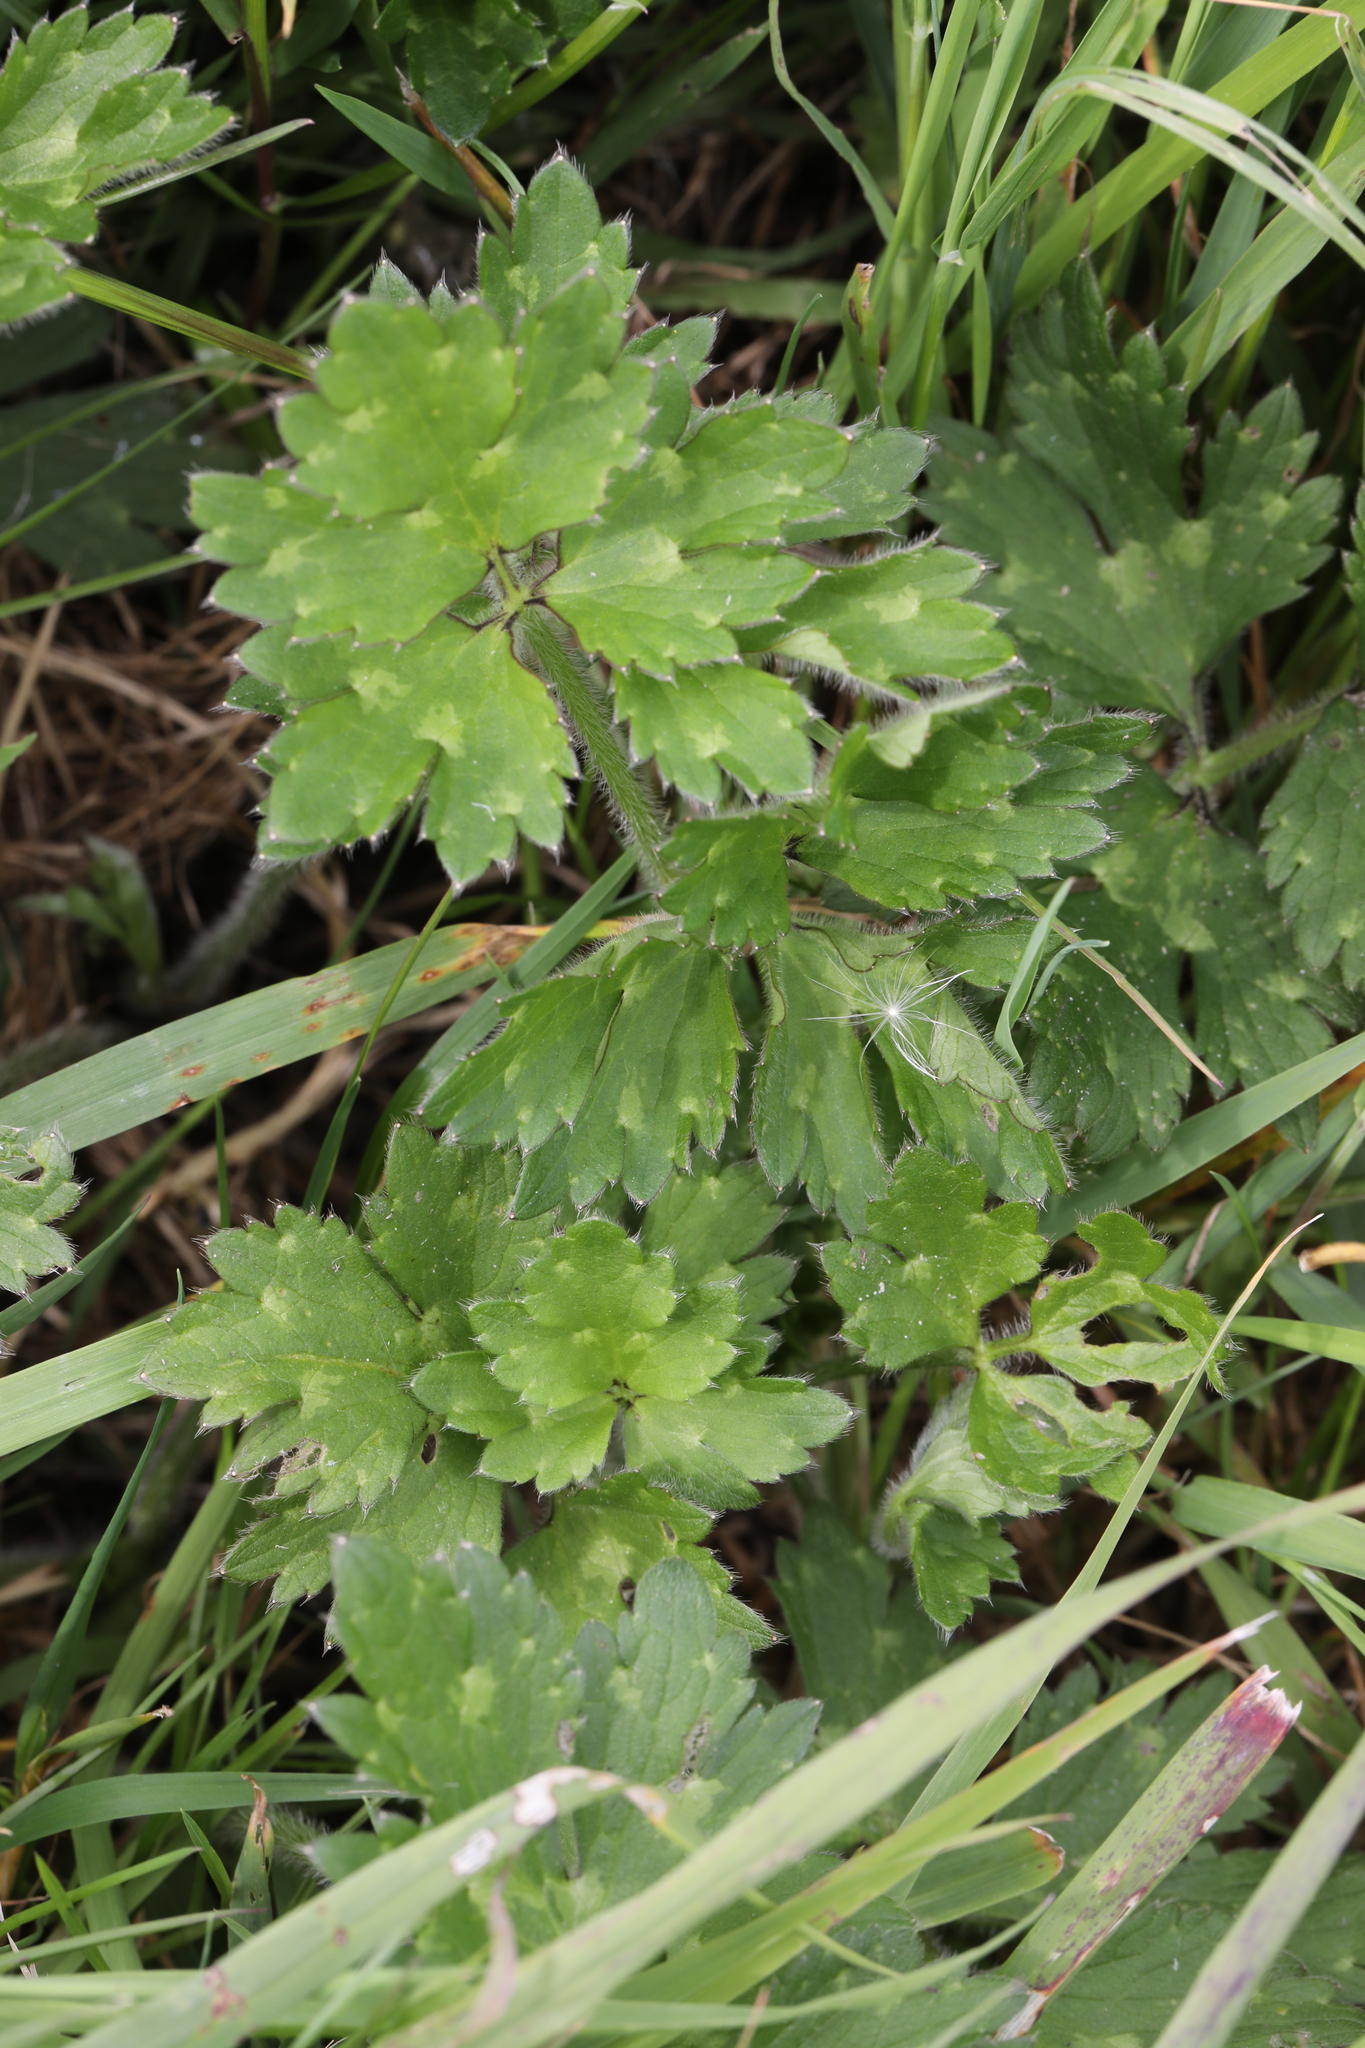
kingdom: Plantae
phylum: Tracheophyta
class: Magnoliopsida
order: Ranunculales
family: Ranunculaceae
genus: Ranunculus
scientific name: Ranunculus repens
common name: Creeping buttercup
